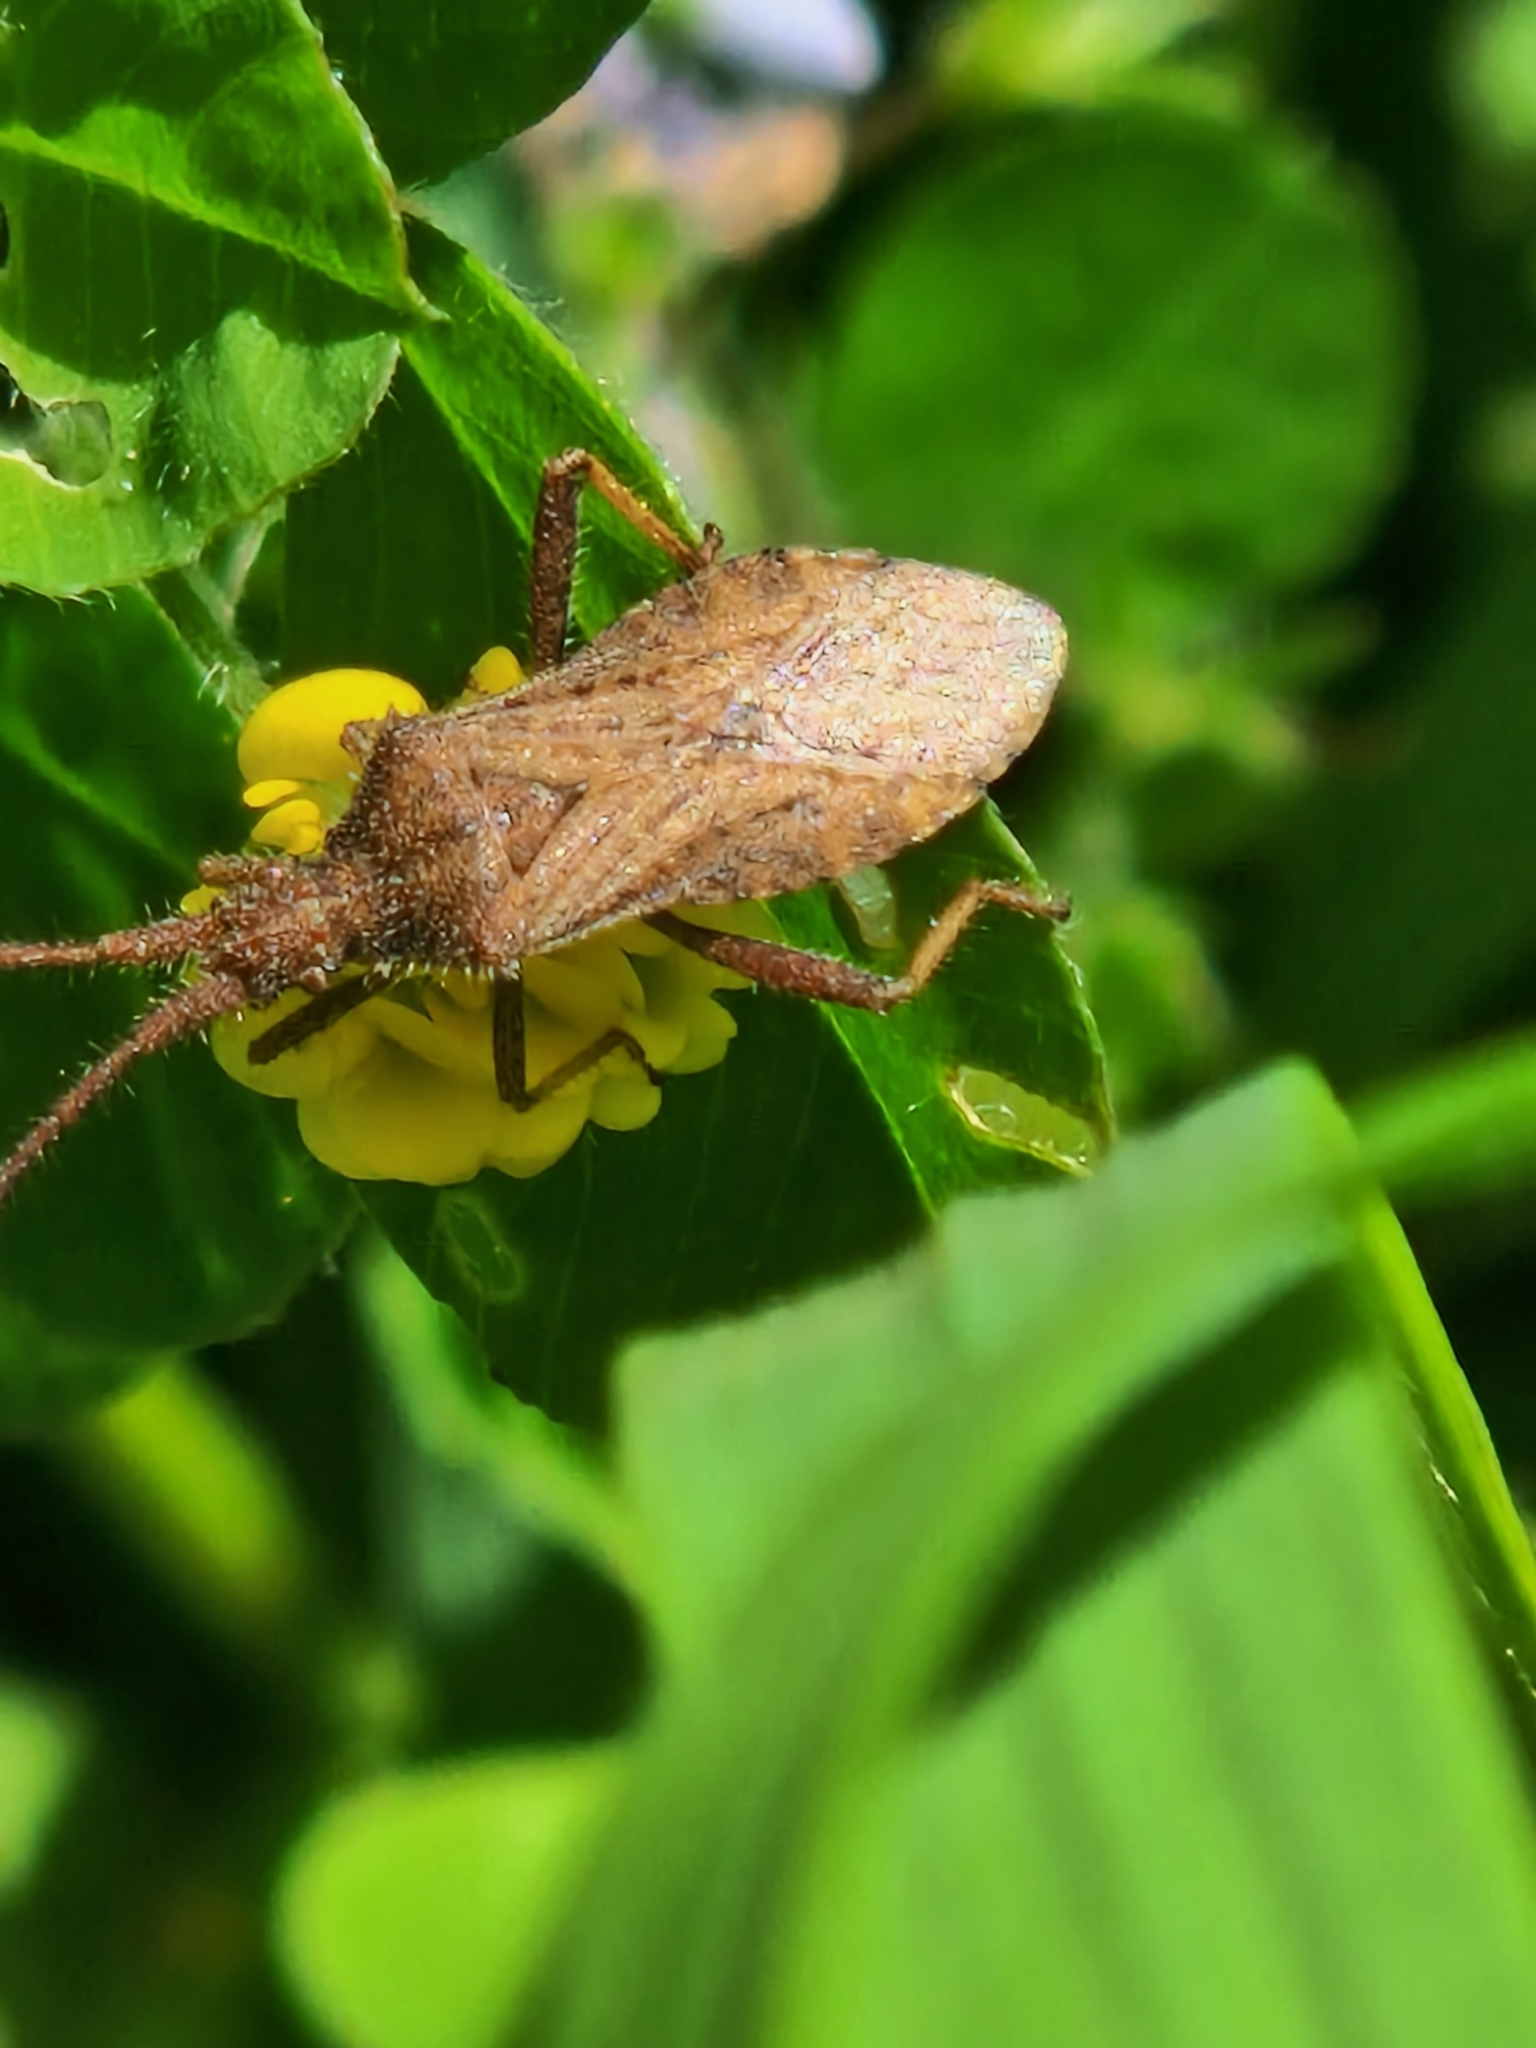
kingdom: Animalia
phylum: Arthropoda
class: Insecta
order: Hemiptera
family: Coreidae
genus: Coriomeris
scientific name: Coriomeris denticulatus
